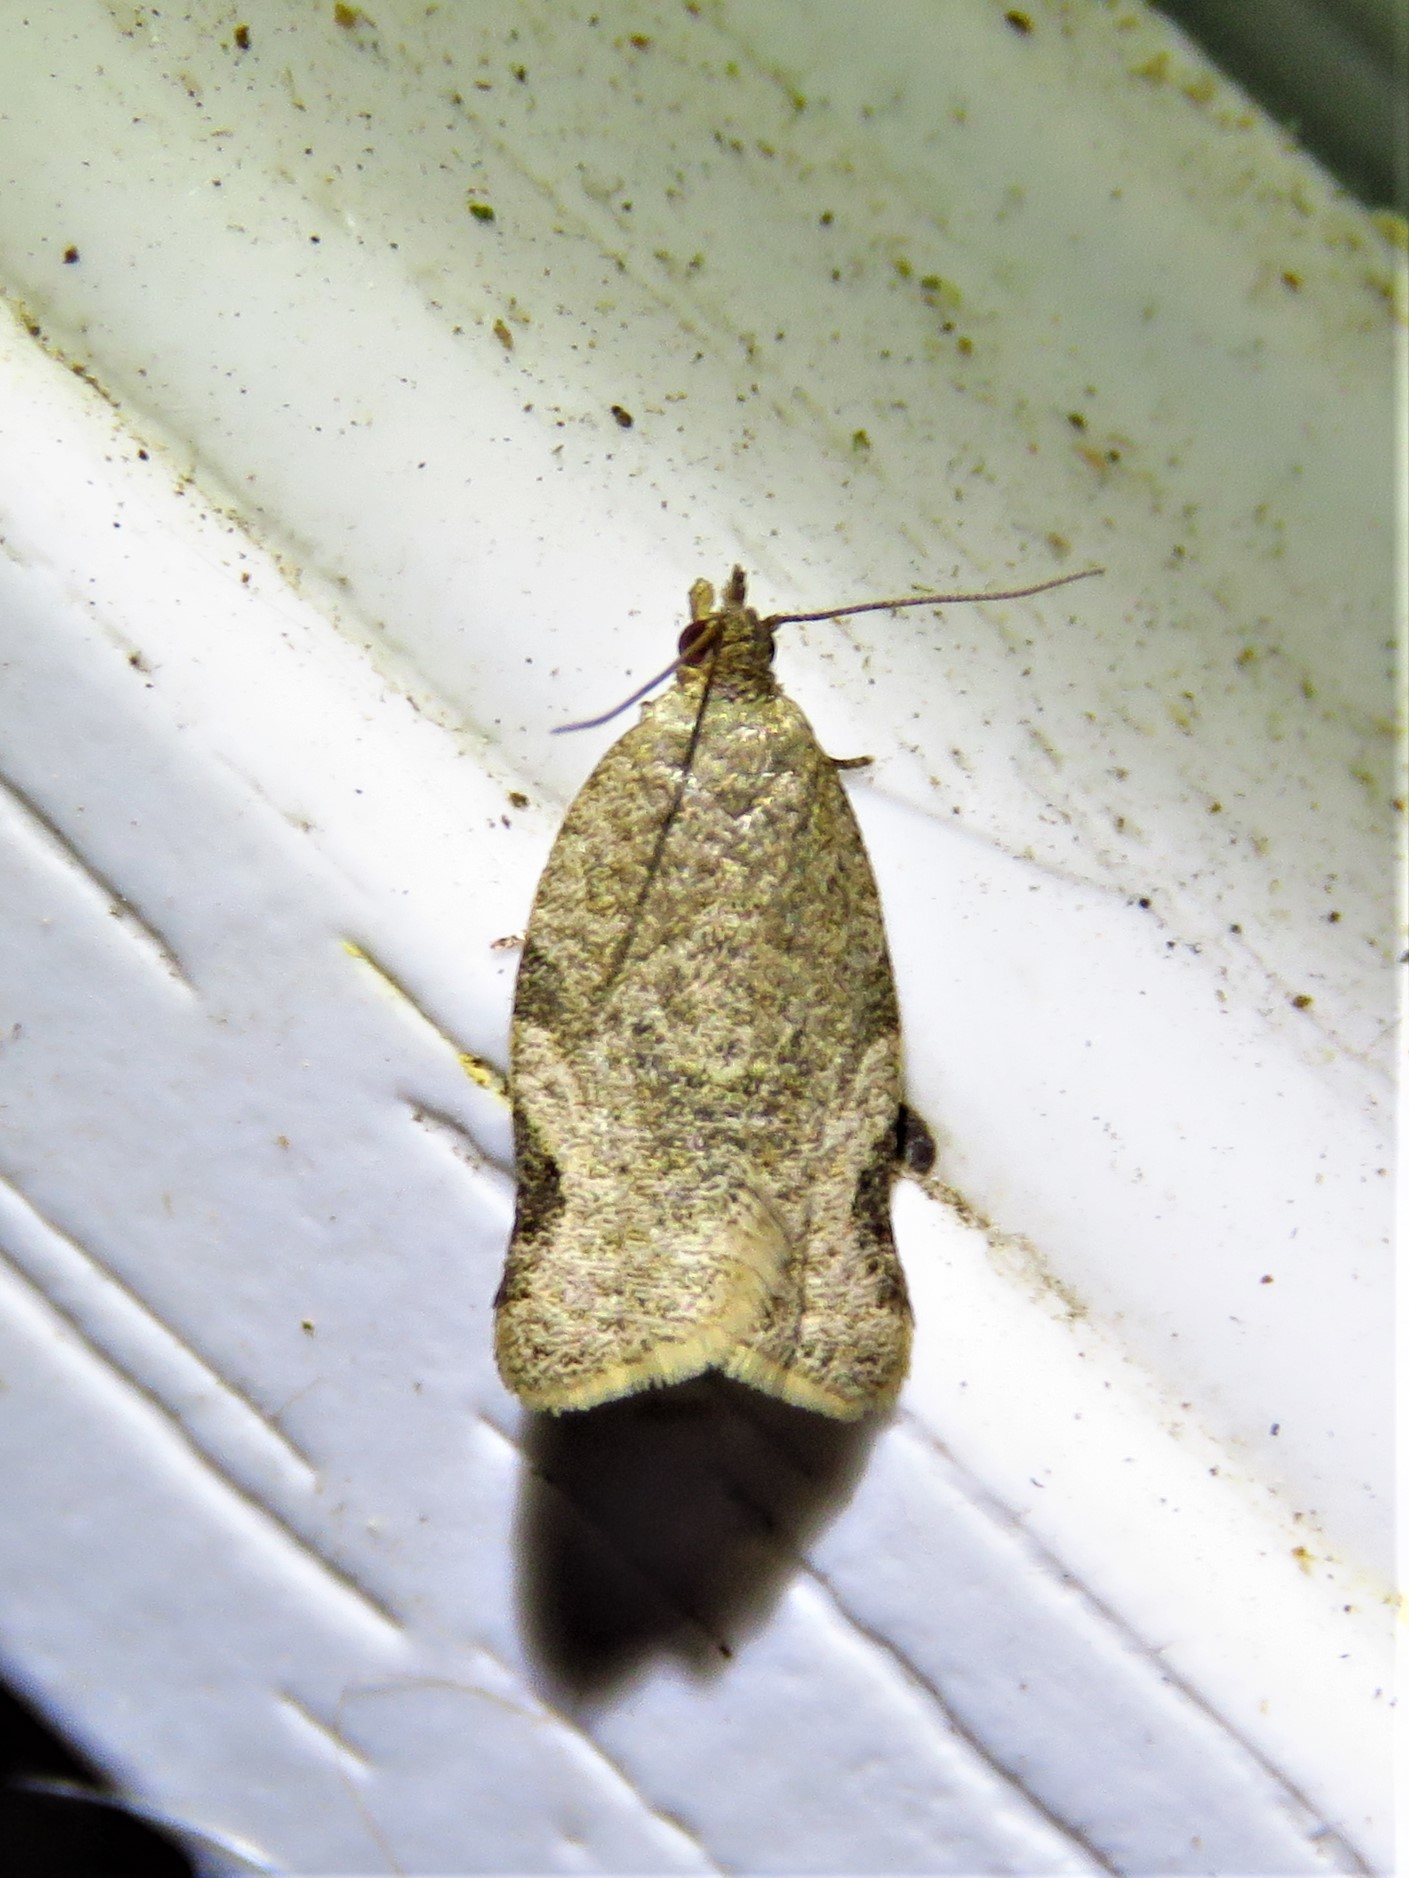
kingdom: Animalia
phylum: Arthropoda
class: Insecta
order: Lepidoptera
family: Tortricidae
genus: Clepsis
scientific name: Clepsis virescana
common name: Greenish apple moth
